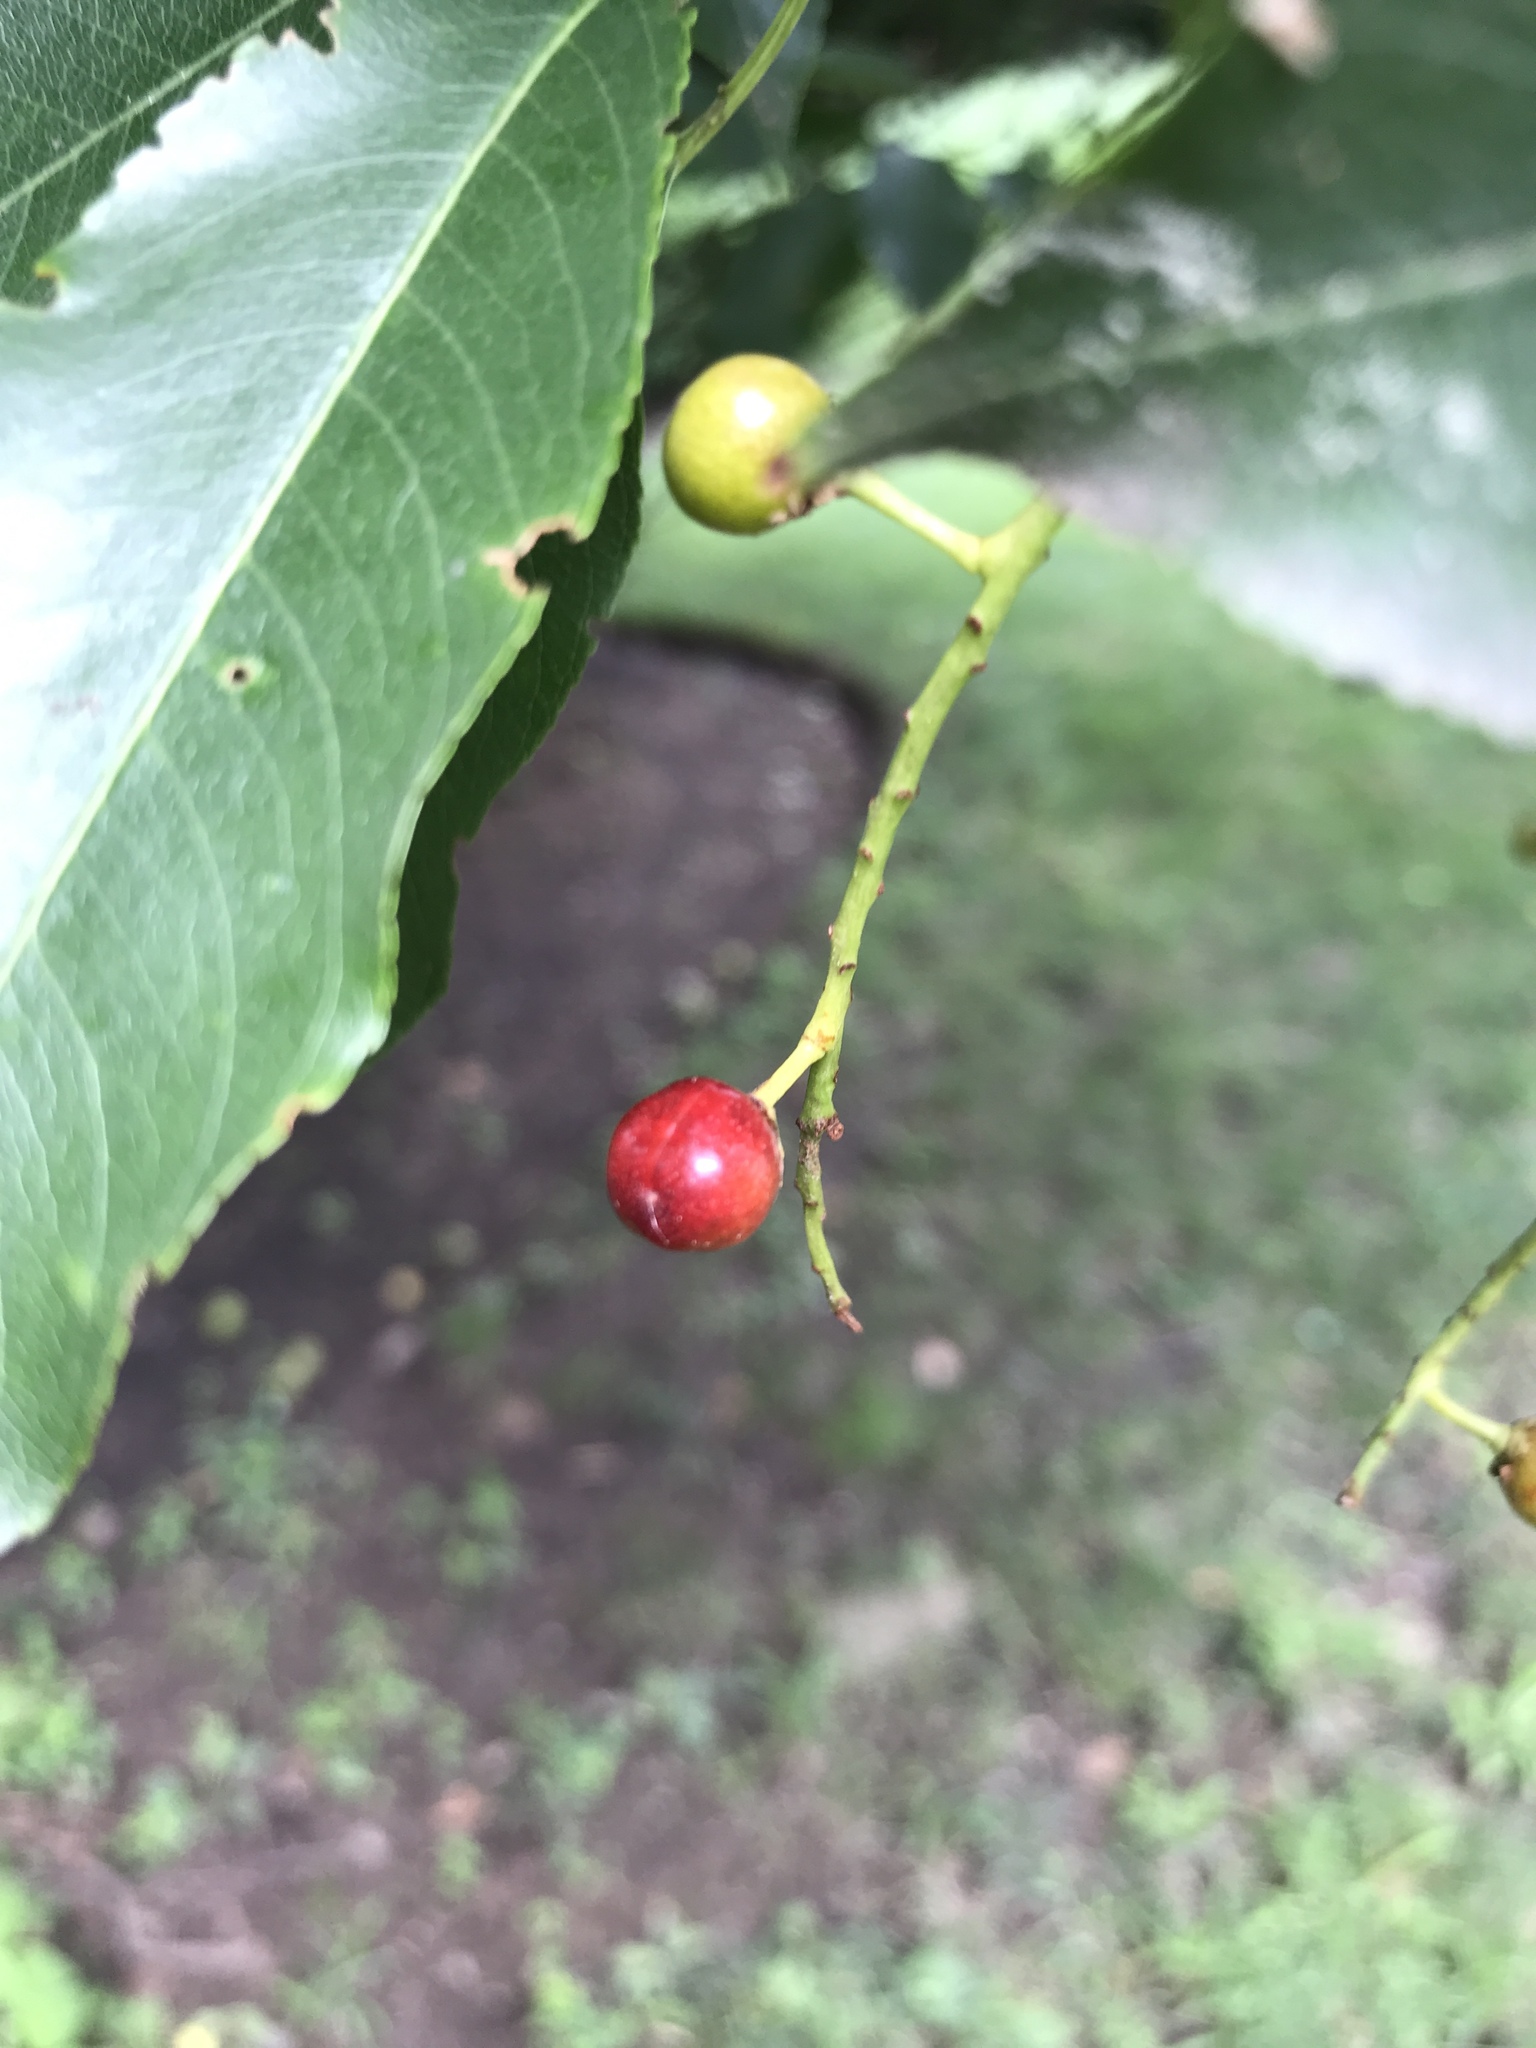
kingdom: Plantae
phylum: Tracheophyta
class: Magnoliopsida
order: Rosales
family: Rosaceae
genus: Prunus
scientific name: Prunus serotina
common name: Black cherry
